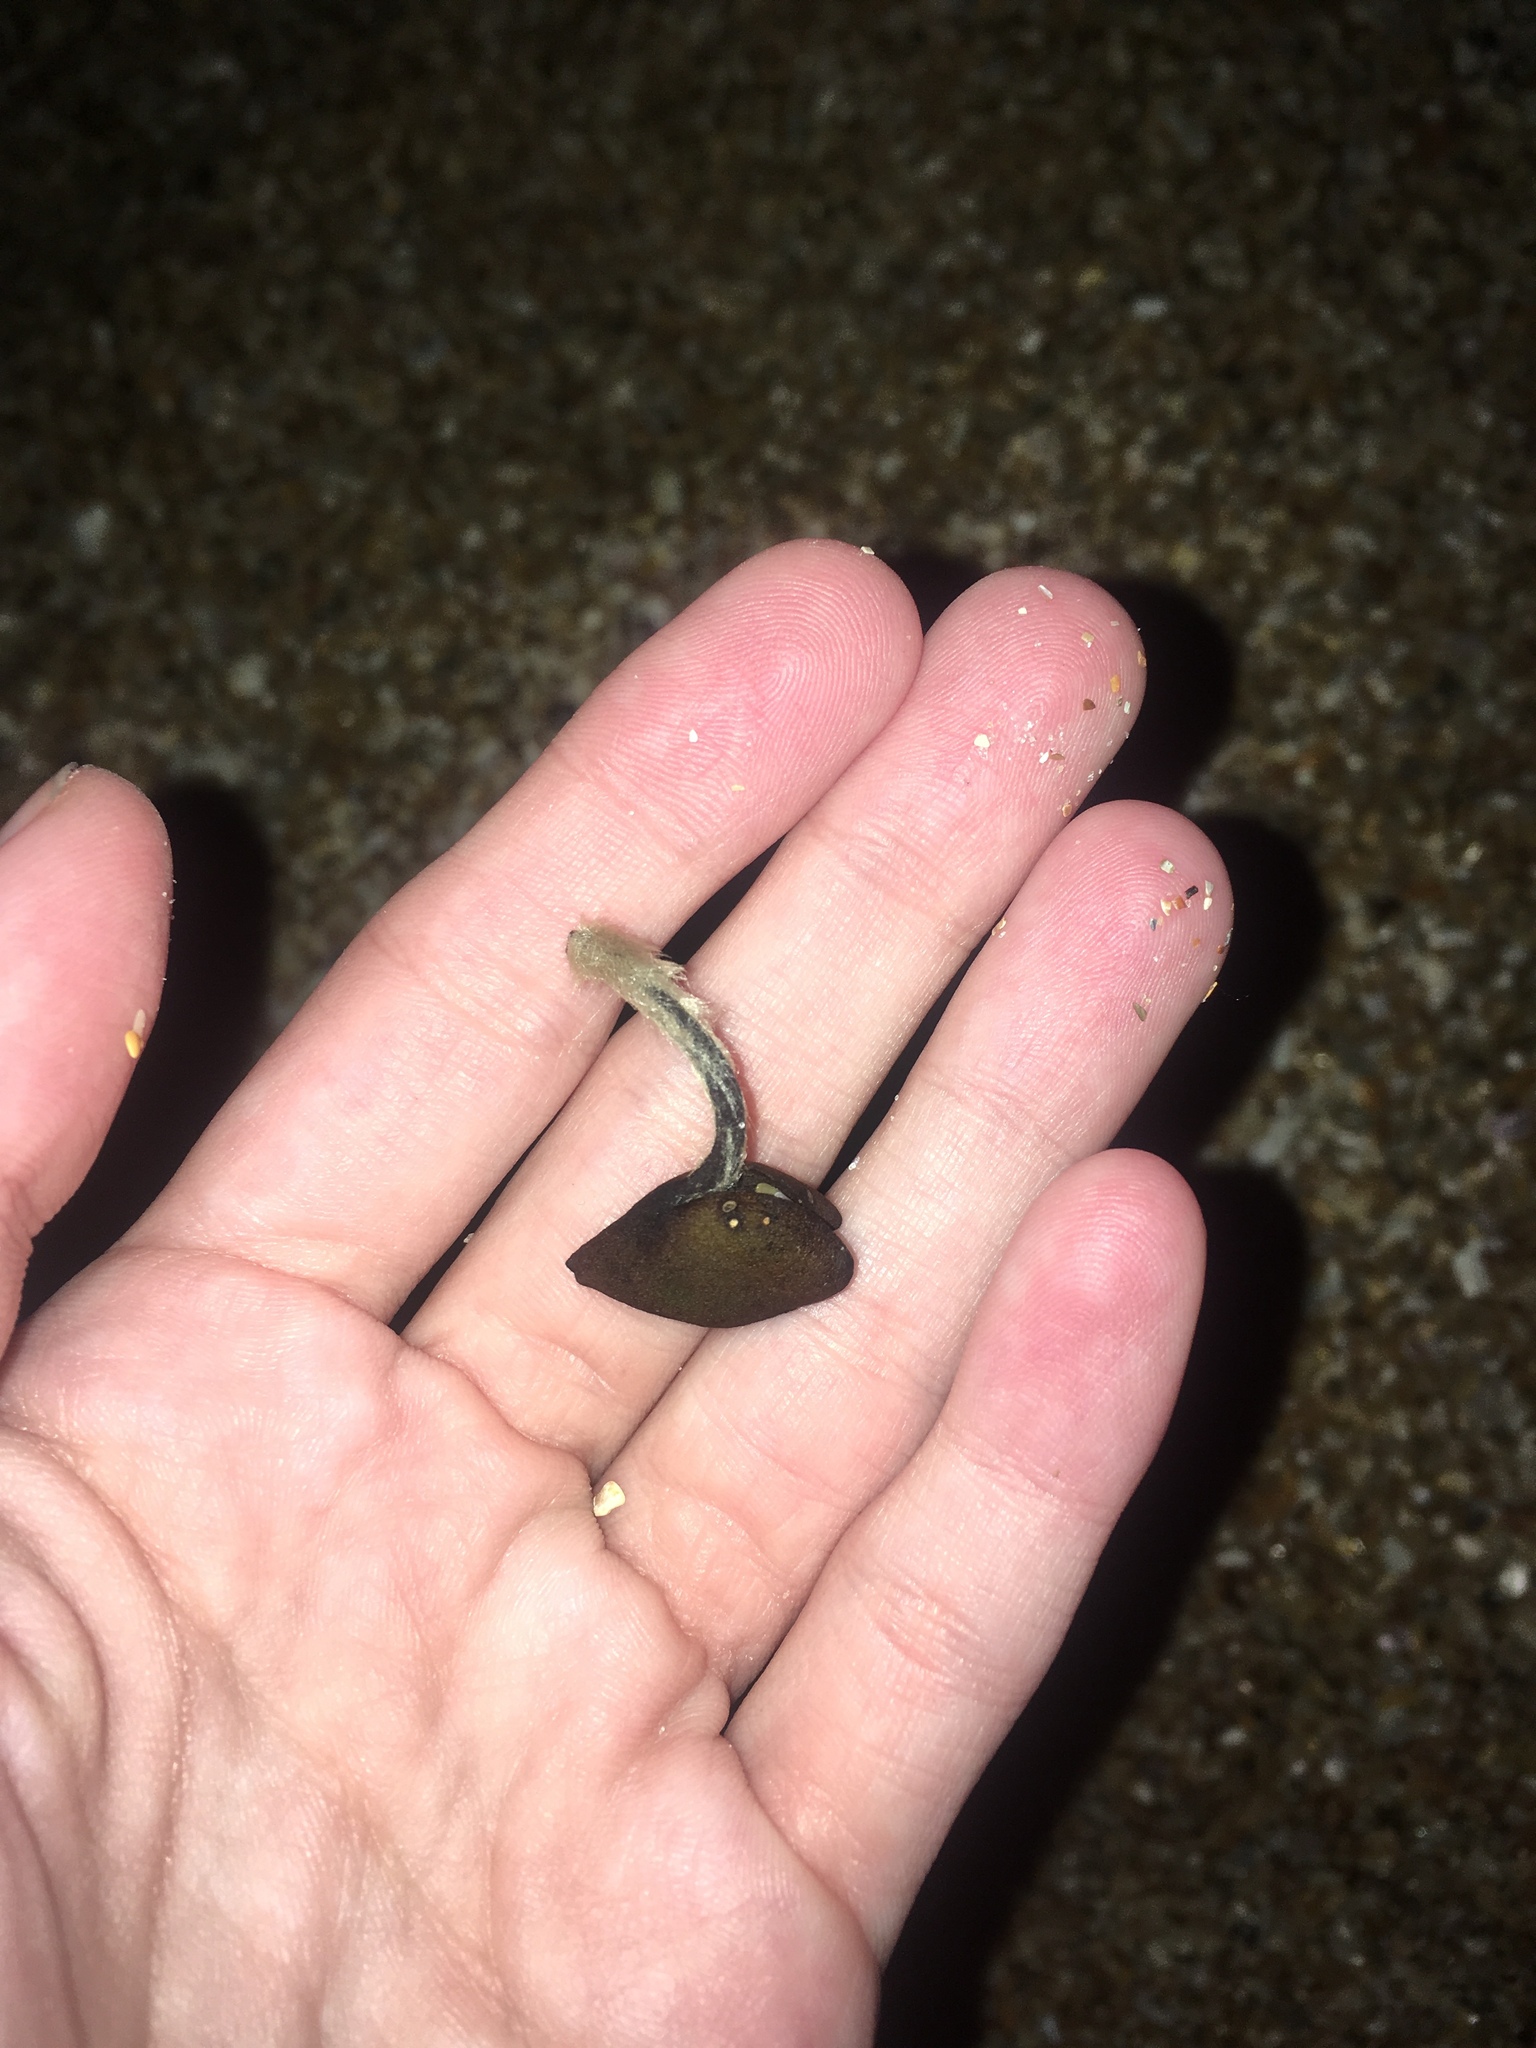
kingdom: Plantae
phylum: Tracheophyta
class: Magnoliopsida
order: Lamiales
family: Acanthaceae
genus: Avicennia
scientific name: Avicennia germinans
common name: Black mangrove
